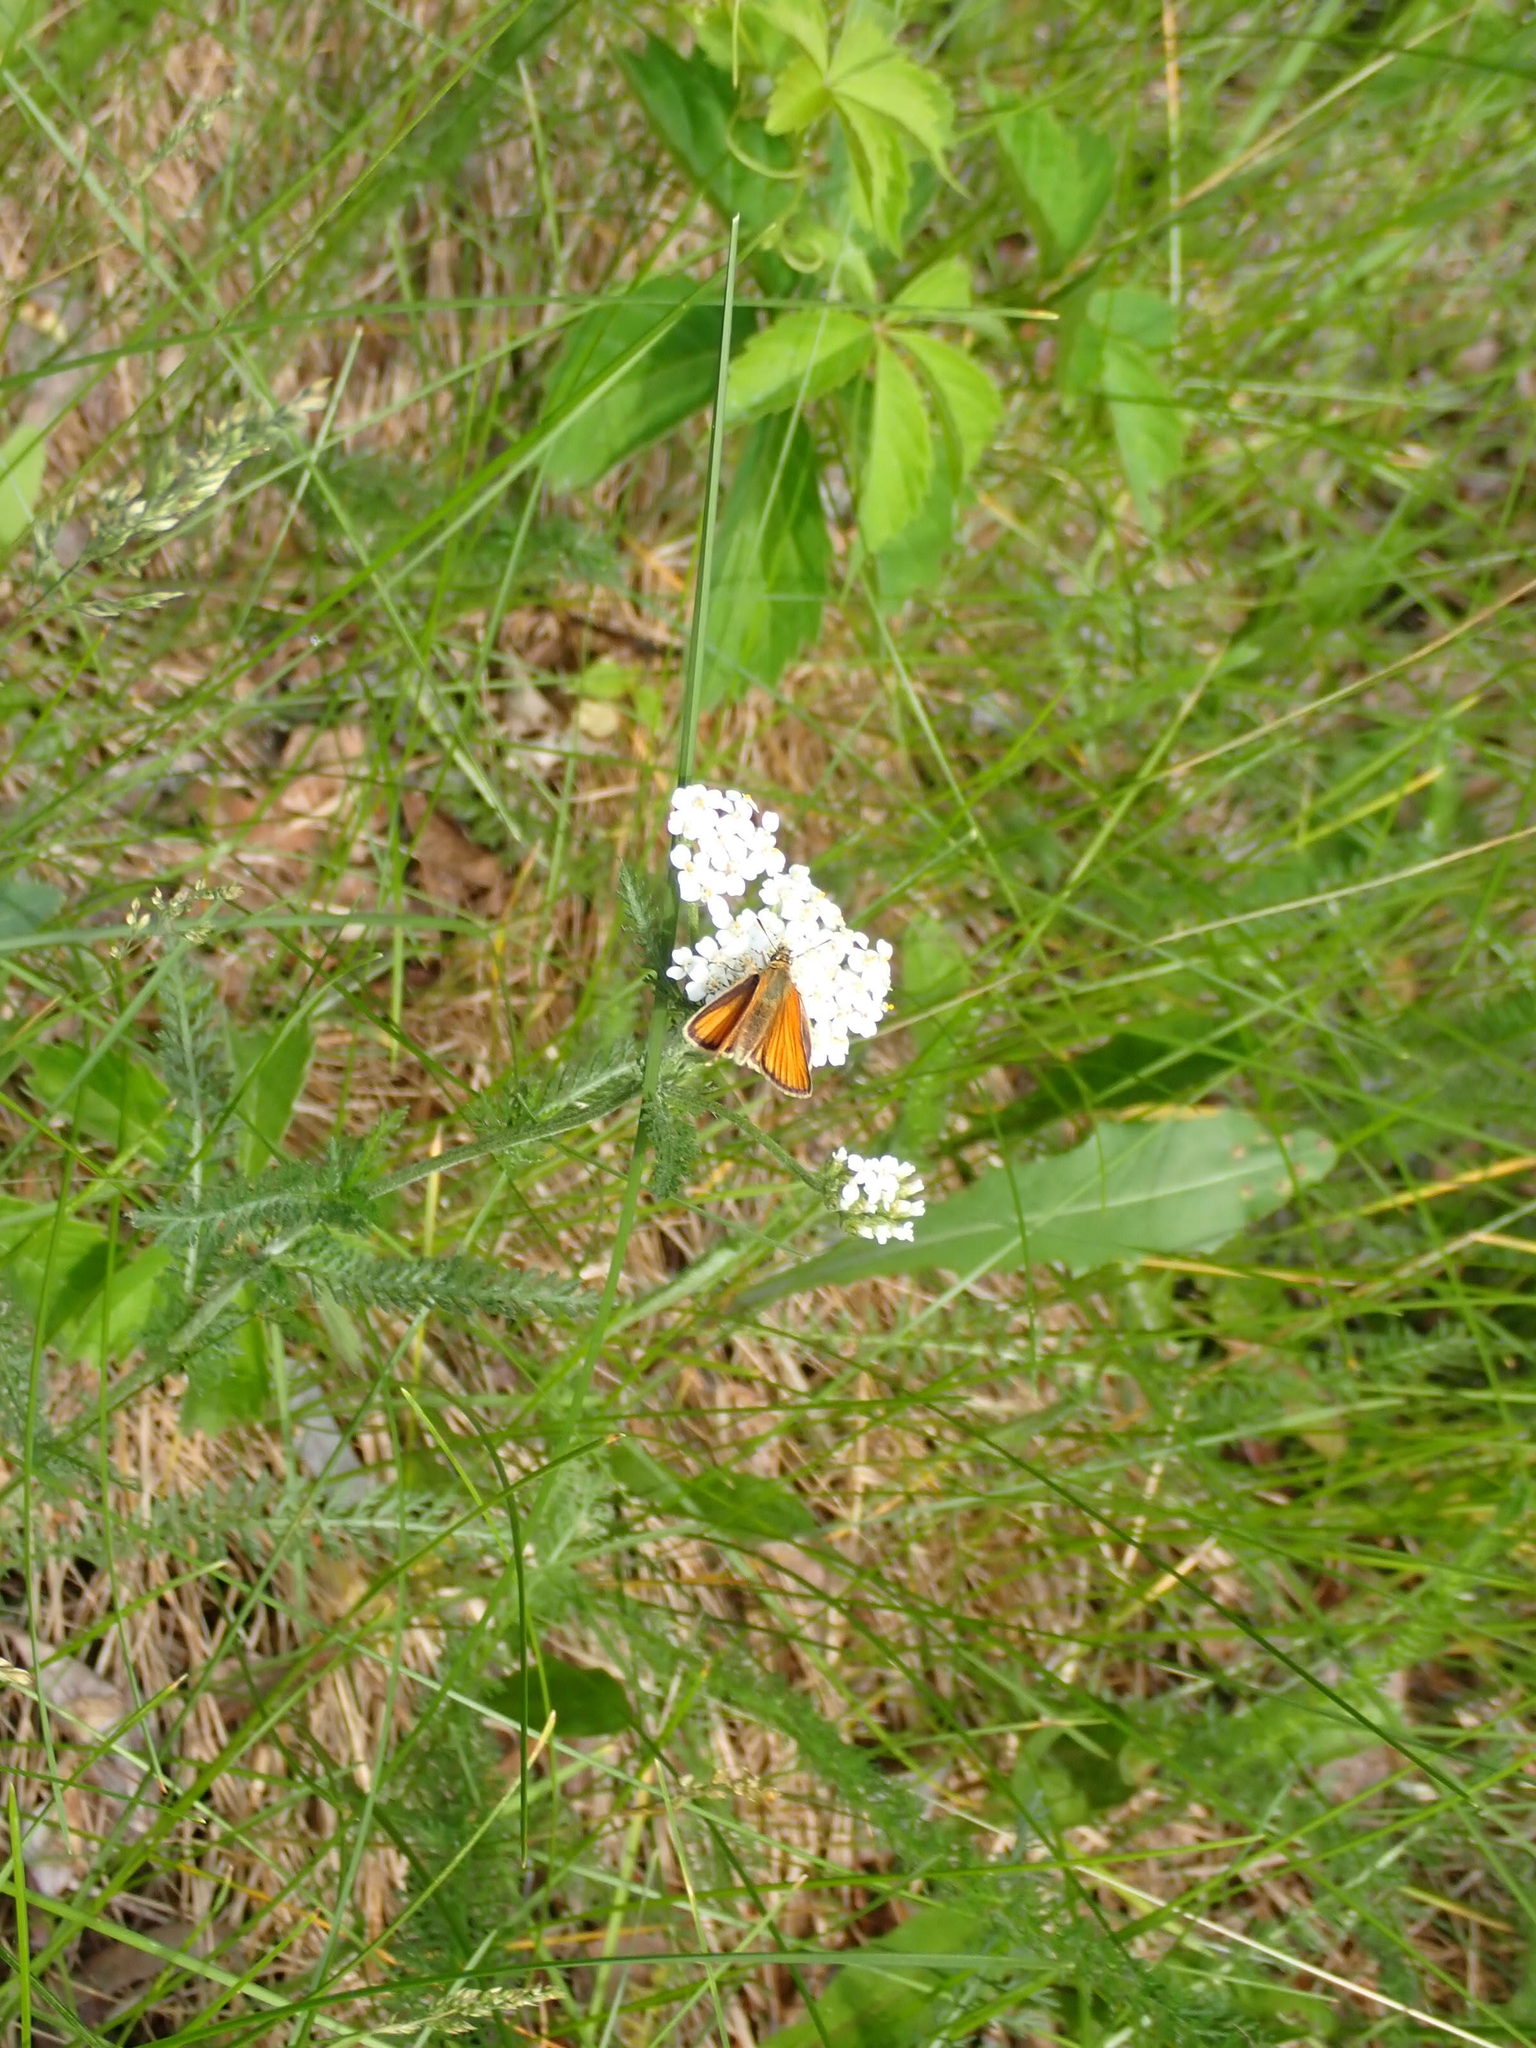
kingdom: Plantae
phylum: Tracheophyta
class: Magnoliopsida
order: Asterales
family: Asteraceae
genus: Achillea
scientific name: Achillea millefolium
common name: Yarrow
